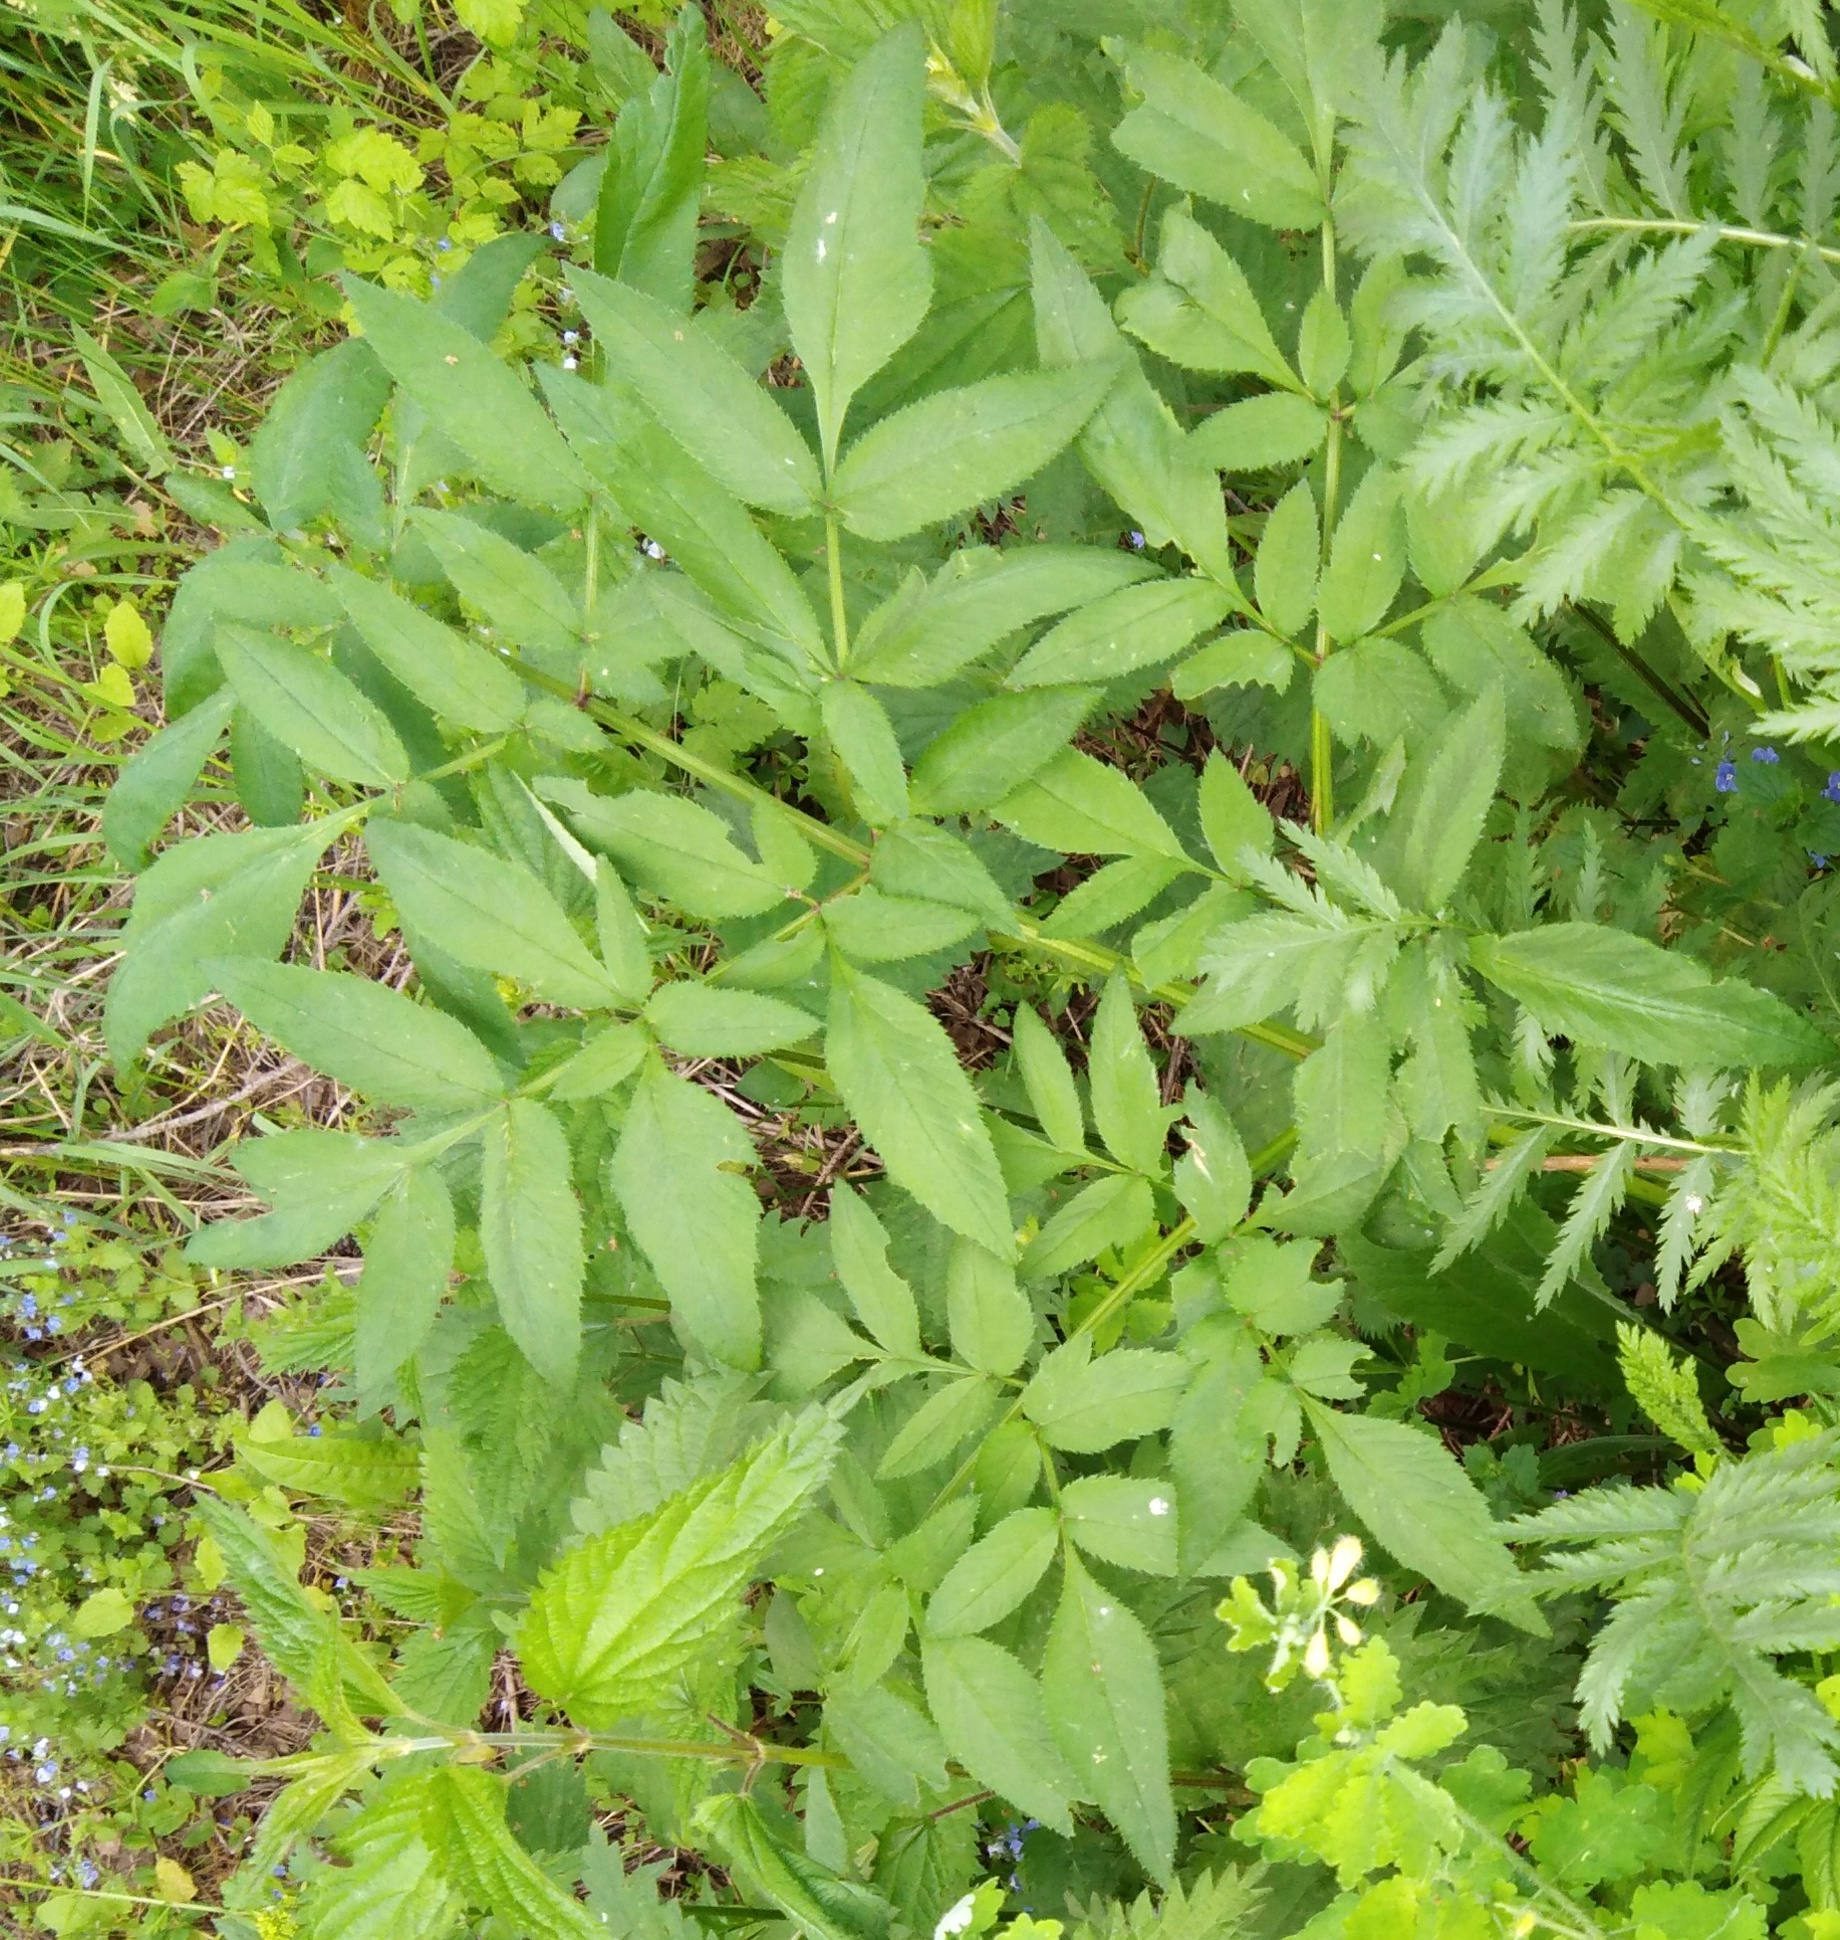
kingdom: Plantae
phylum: Tracheophyta
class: Magnoliopsida
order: Apiales
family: Apiaceae
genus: Angelica
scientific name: Angelica sylvestris
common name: Wild angelica
